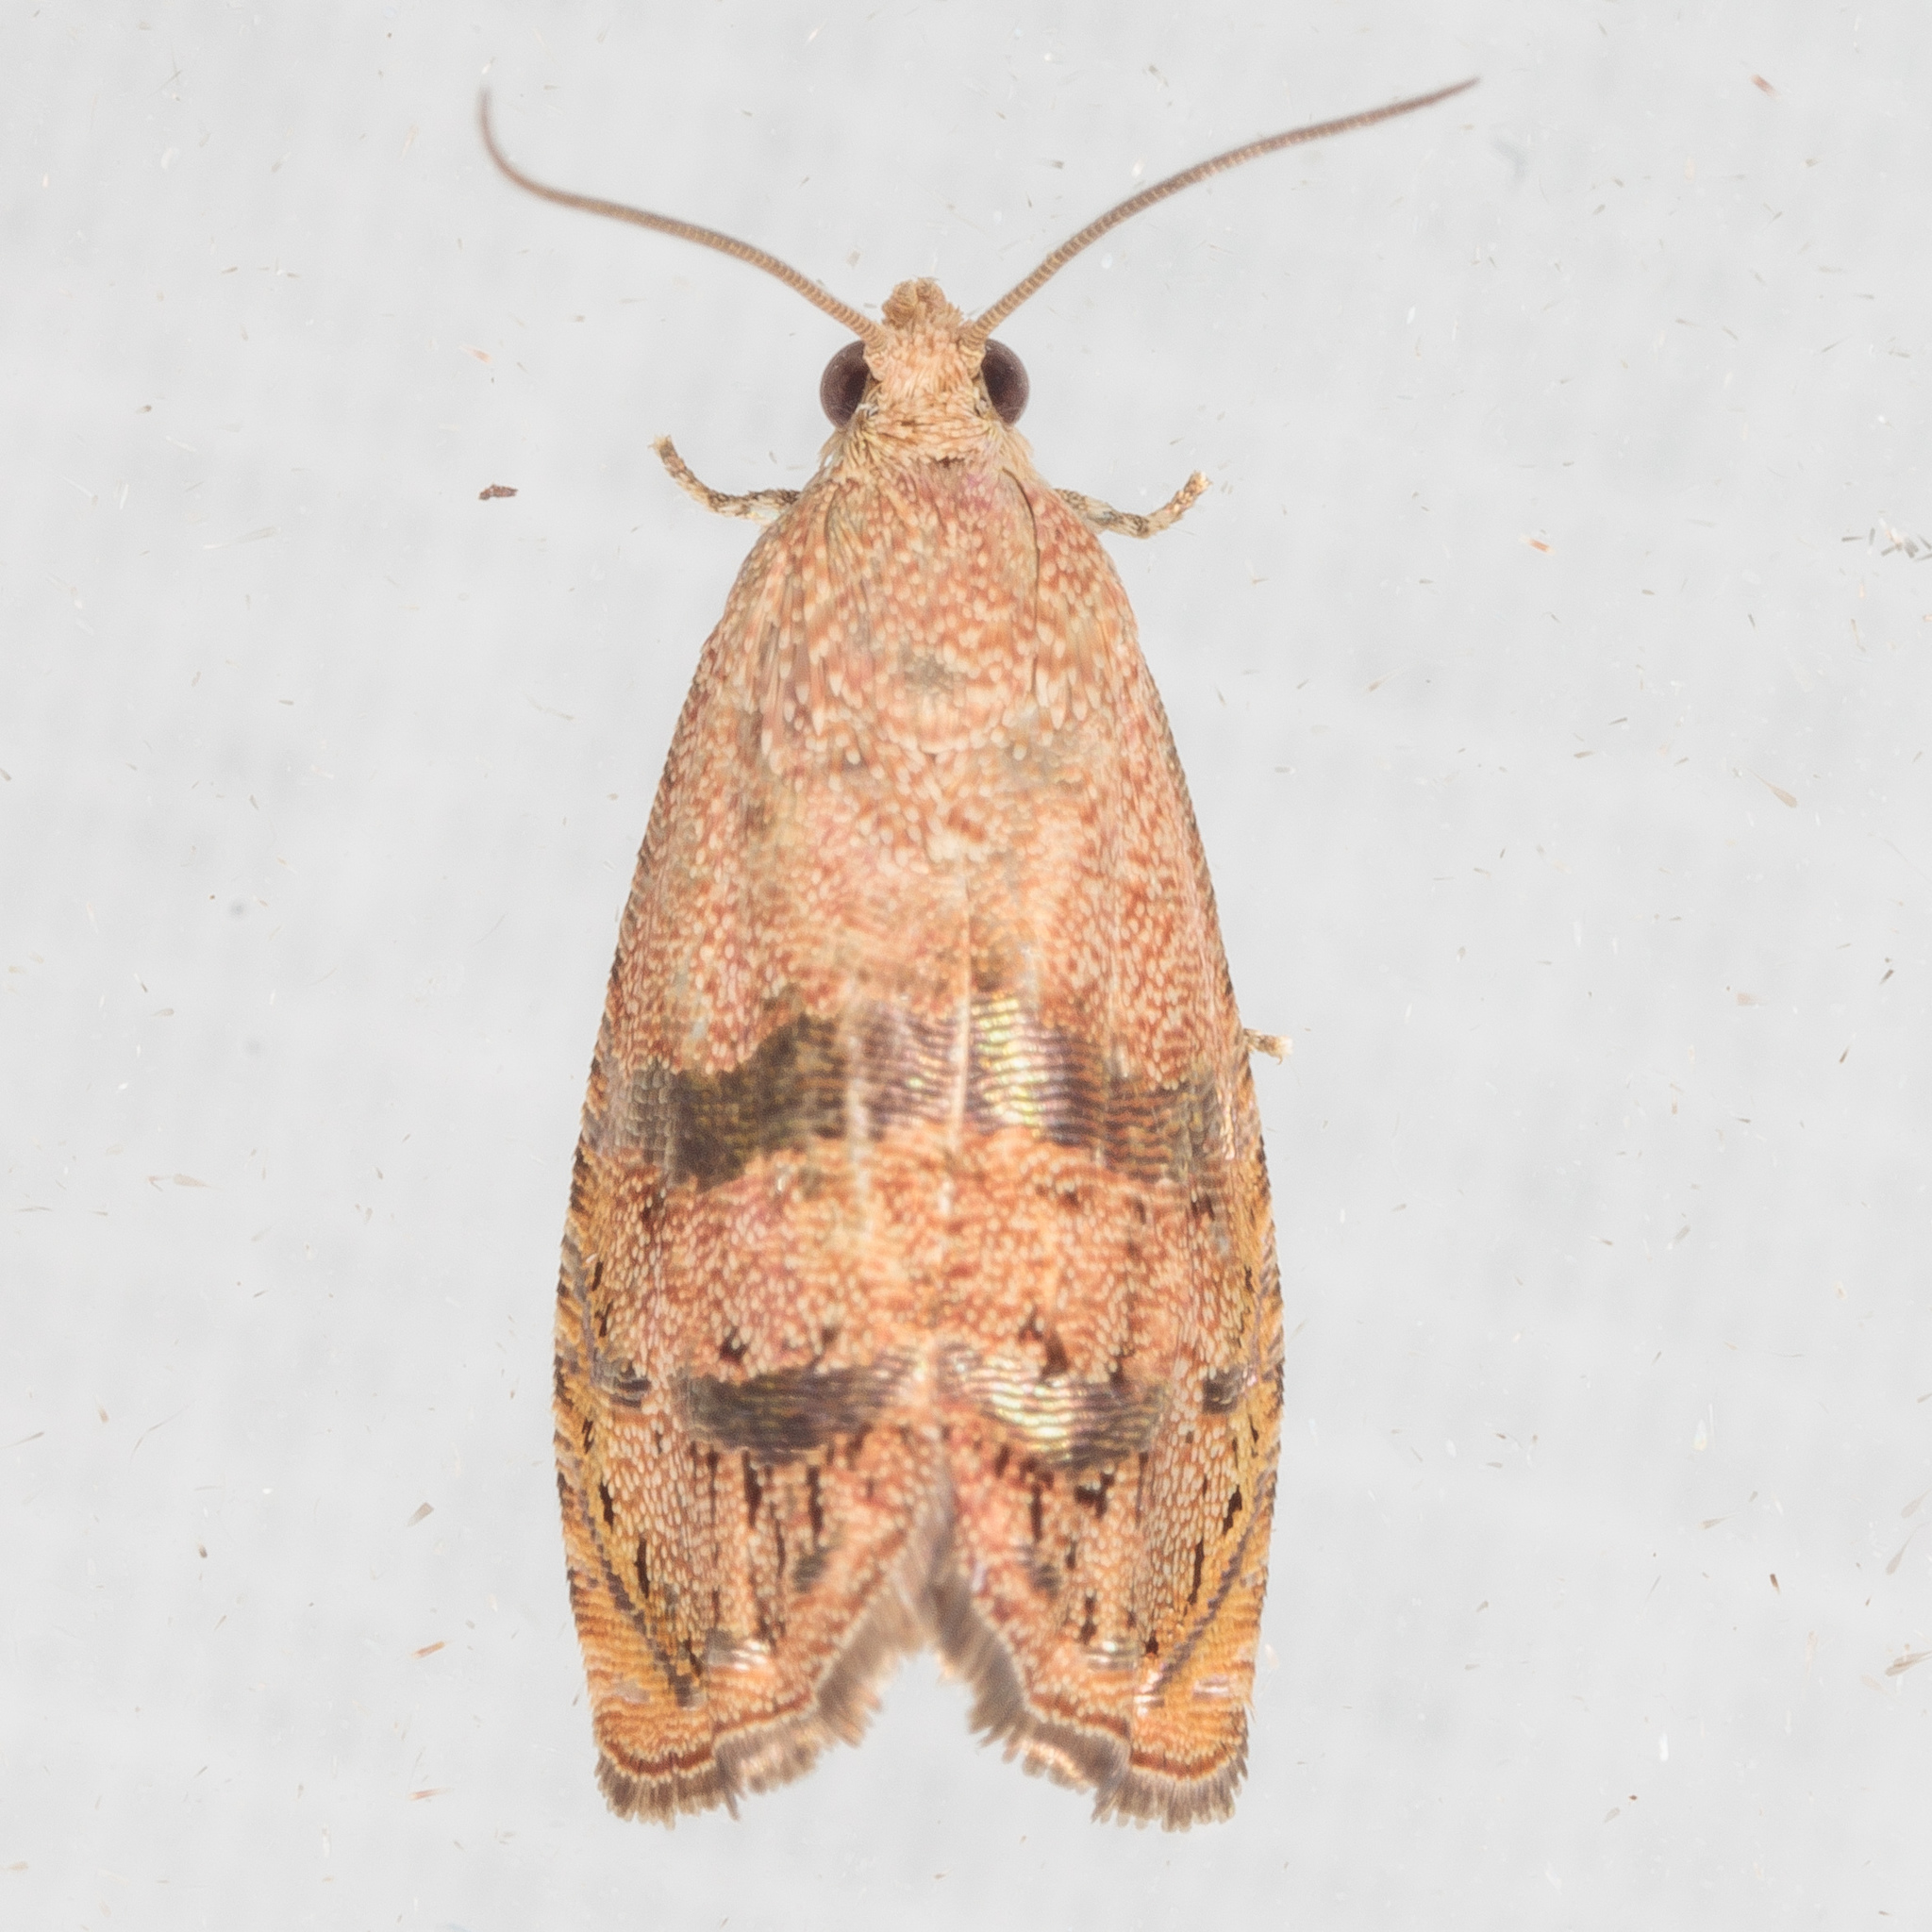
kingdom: Animalia
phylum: Arthropoda
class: Insecta
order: Lepidoptera
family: Tortricidae
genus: Cydia
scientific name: Cydia latiferreana
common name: Filbertworm moth
